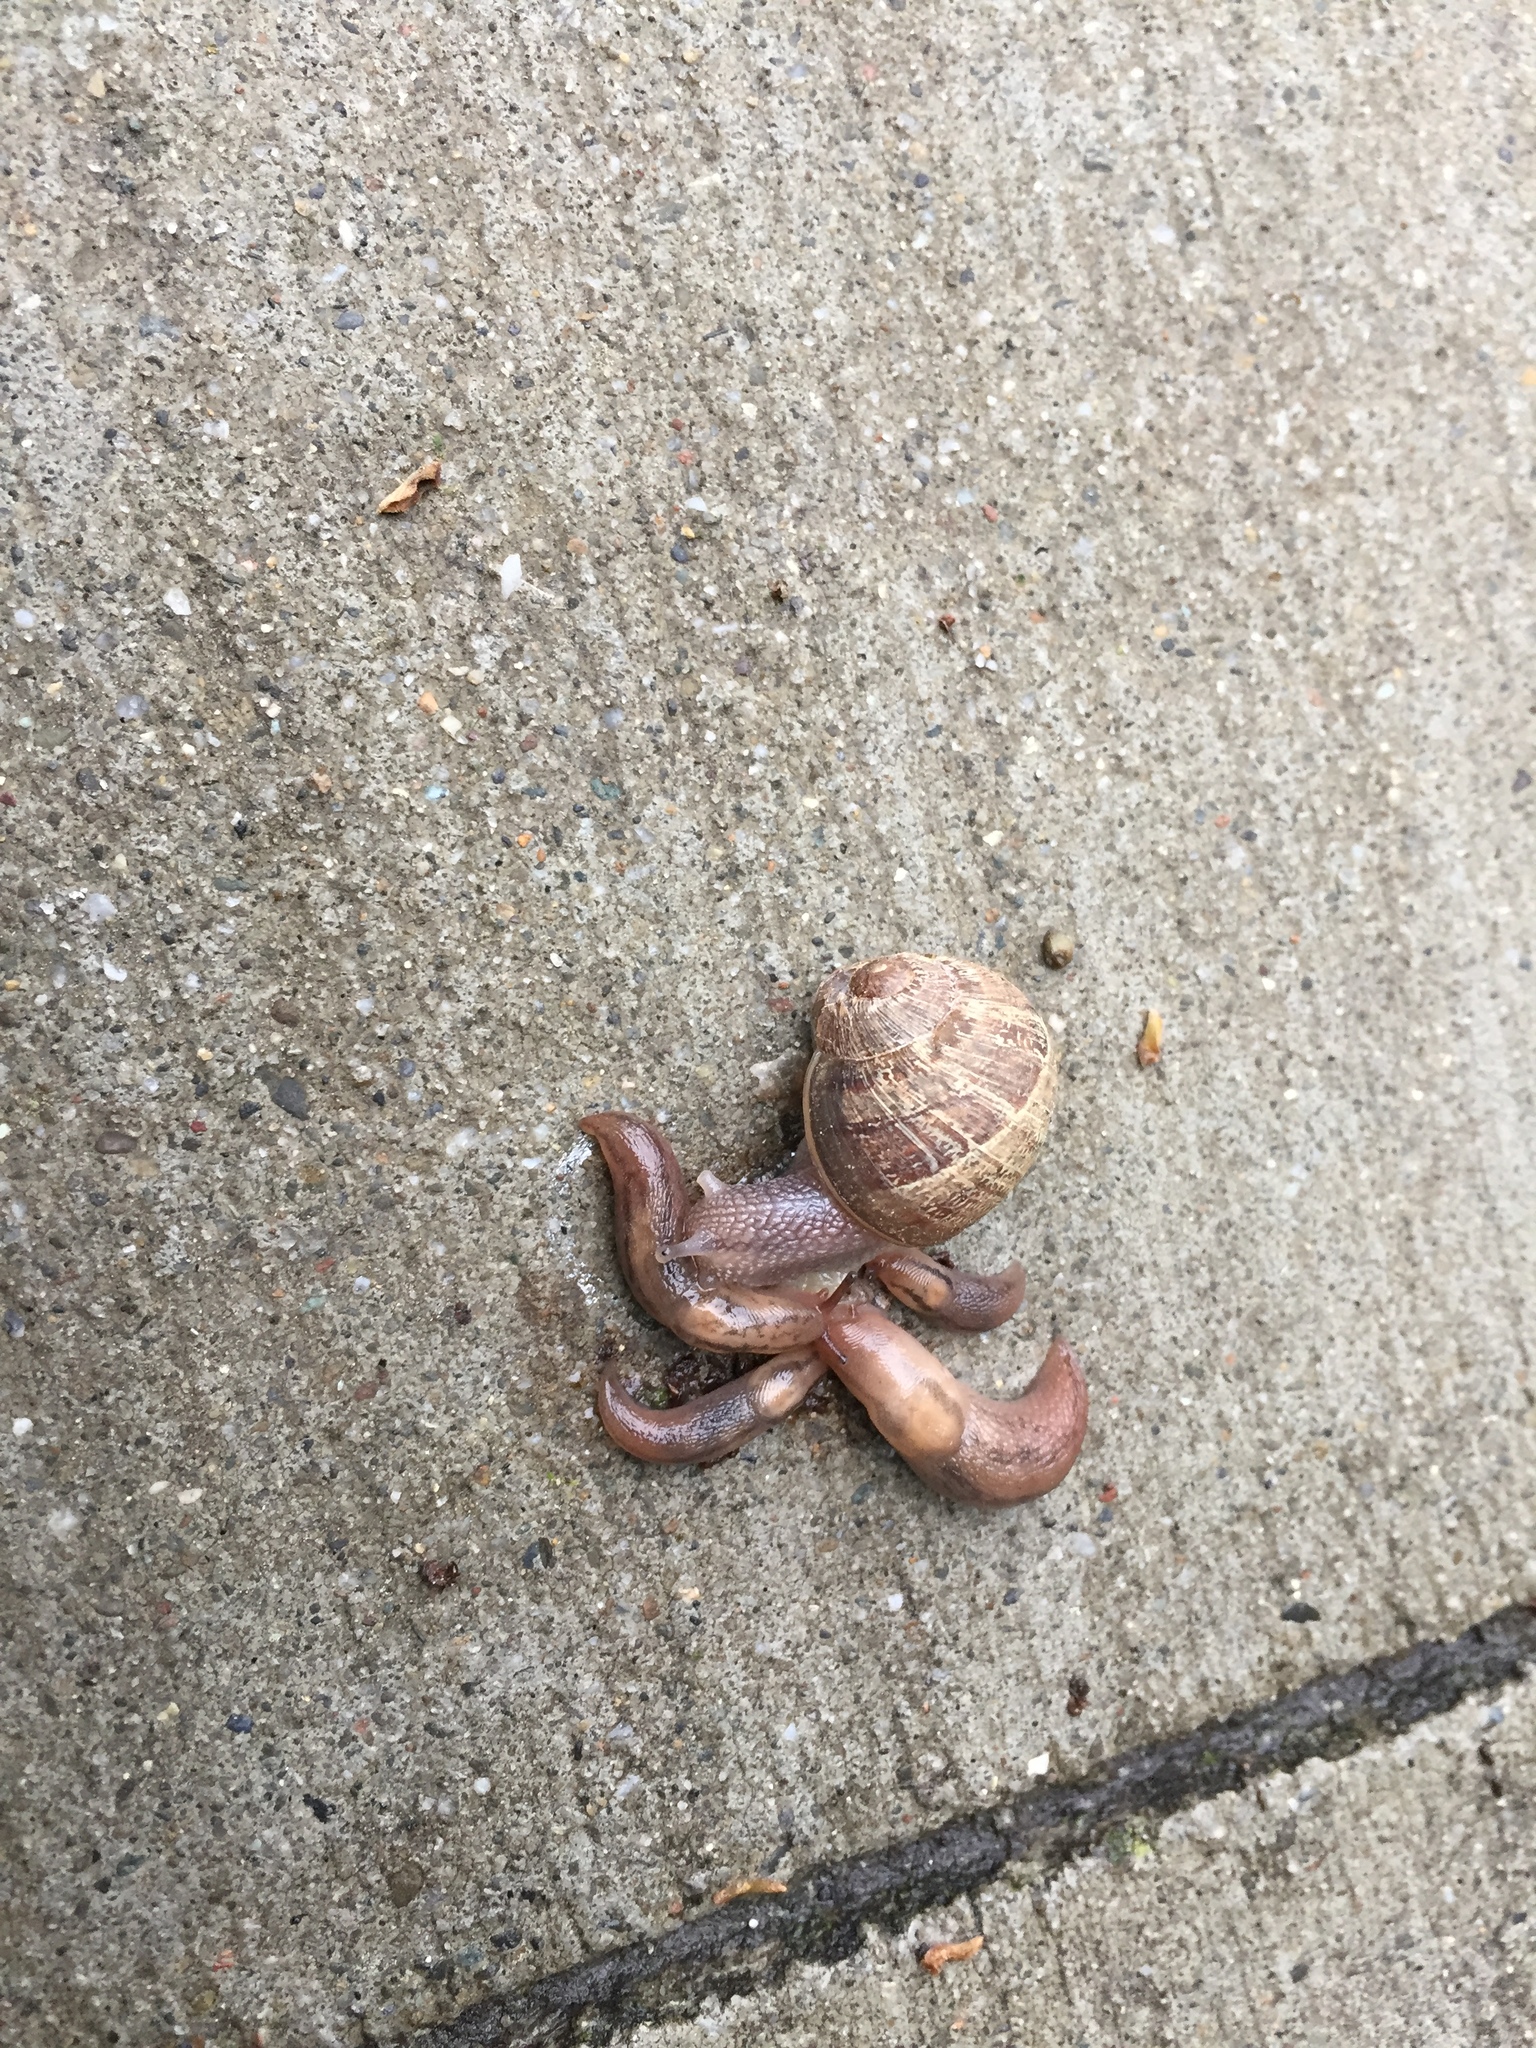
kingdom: Animalia
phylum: Mollusca
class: Gastropoda
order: Stylommatophora
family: Helicidae
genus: Cornu
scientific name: Cornu aspersum
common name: Brown garden snail
